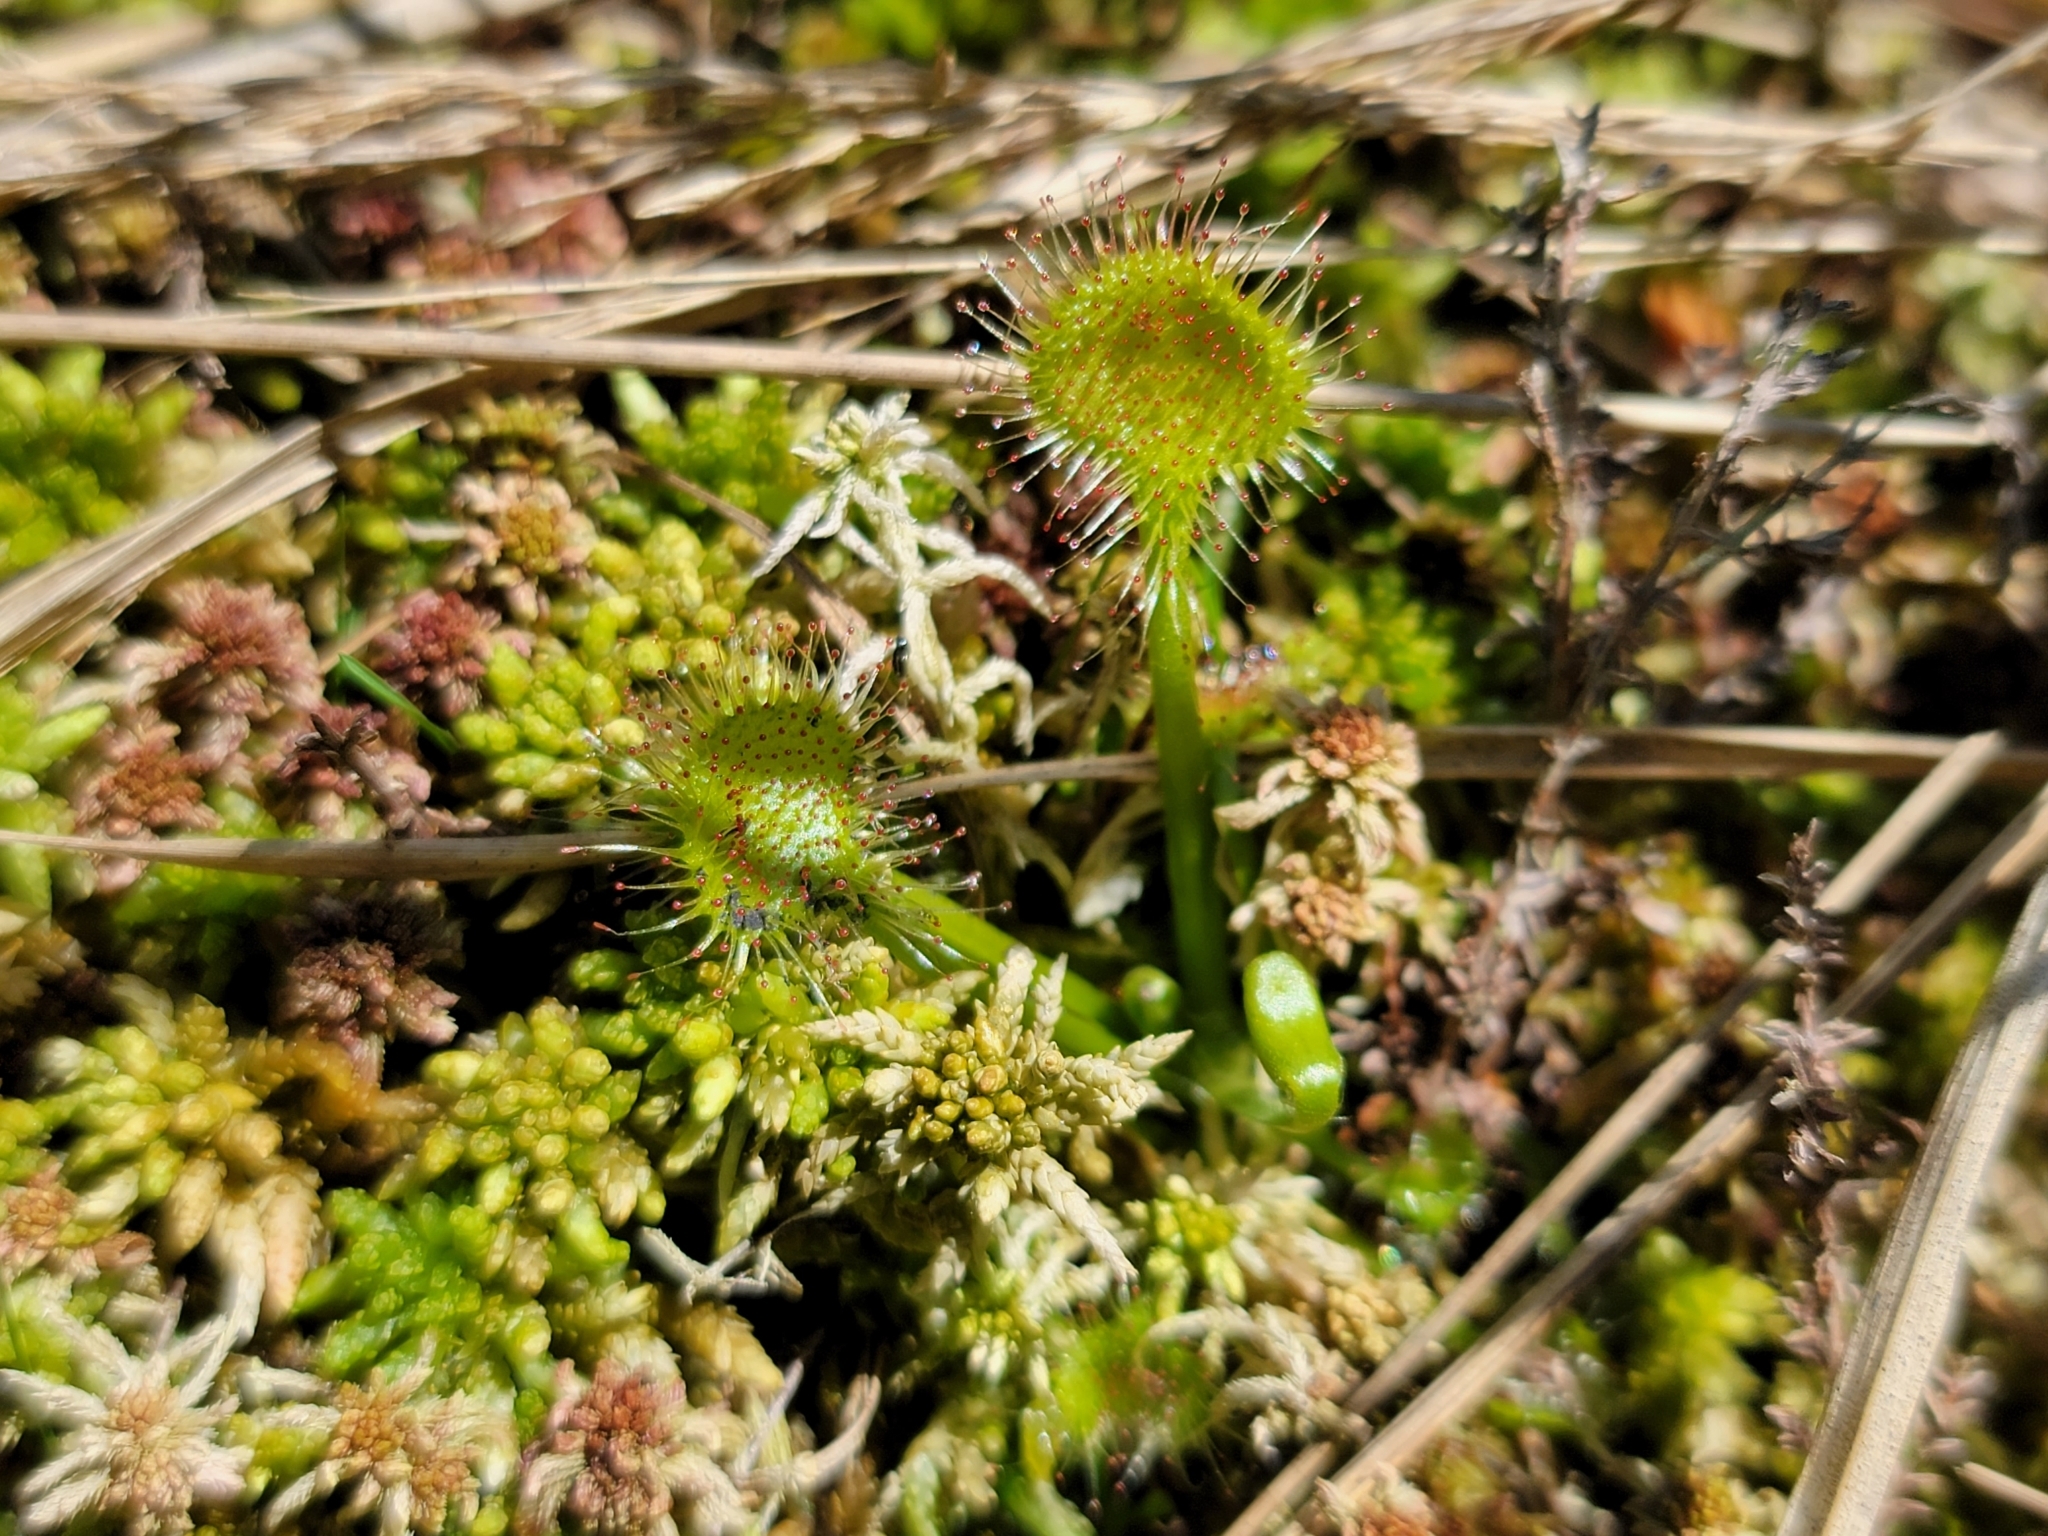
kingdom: Plantae
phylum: Tracheophyta
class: Magnoliopsida
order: Caryophyllales
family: Droseraceae
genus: Drosera
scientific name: Drosera rotundifolia
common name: Round-leaved sundew
